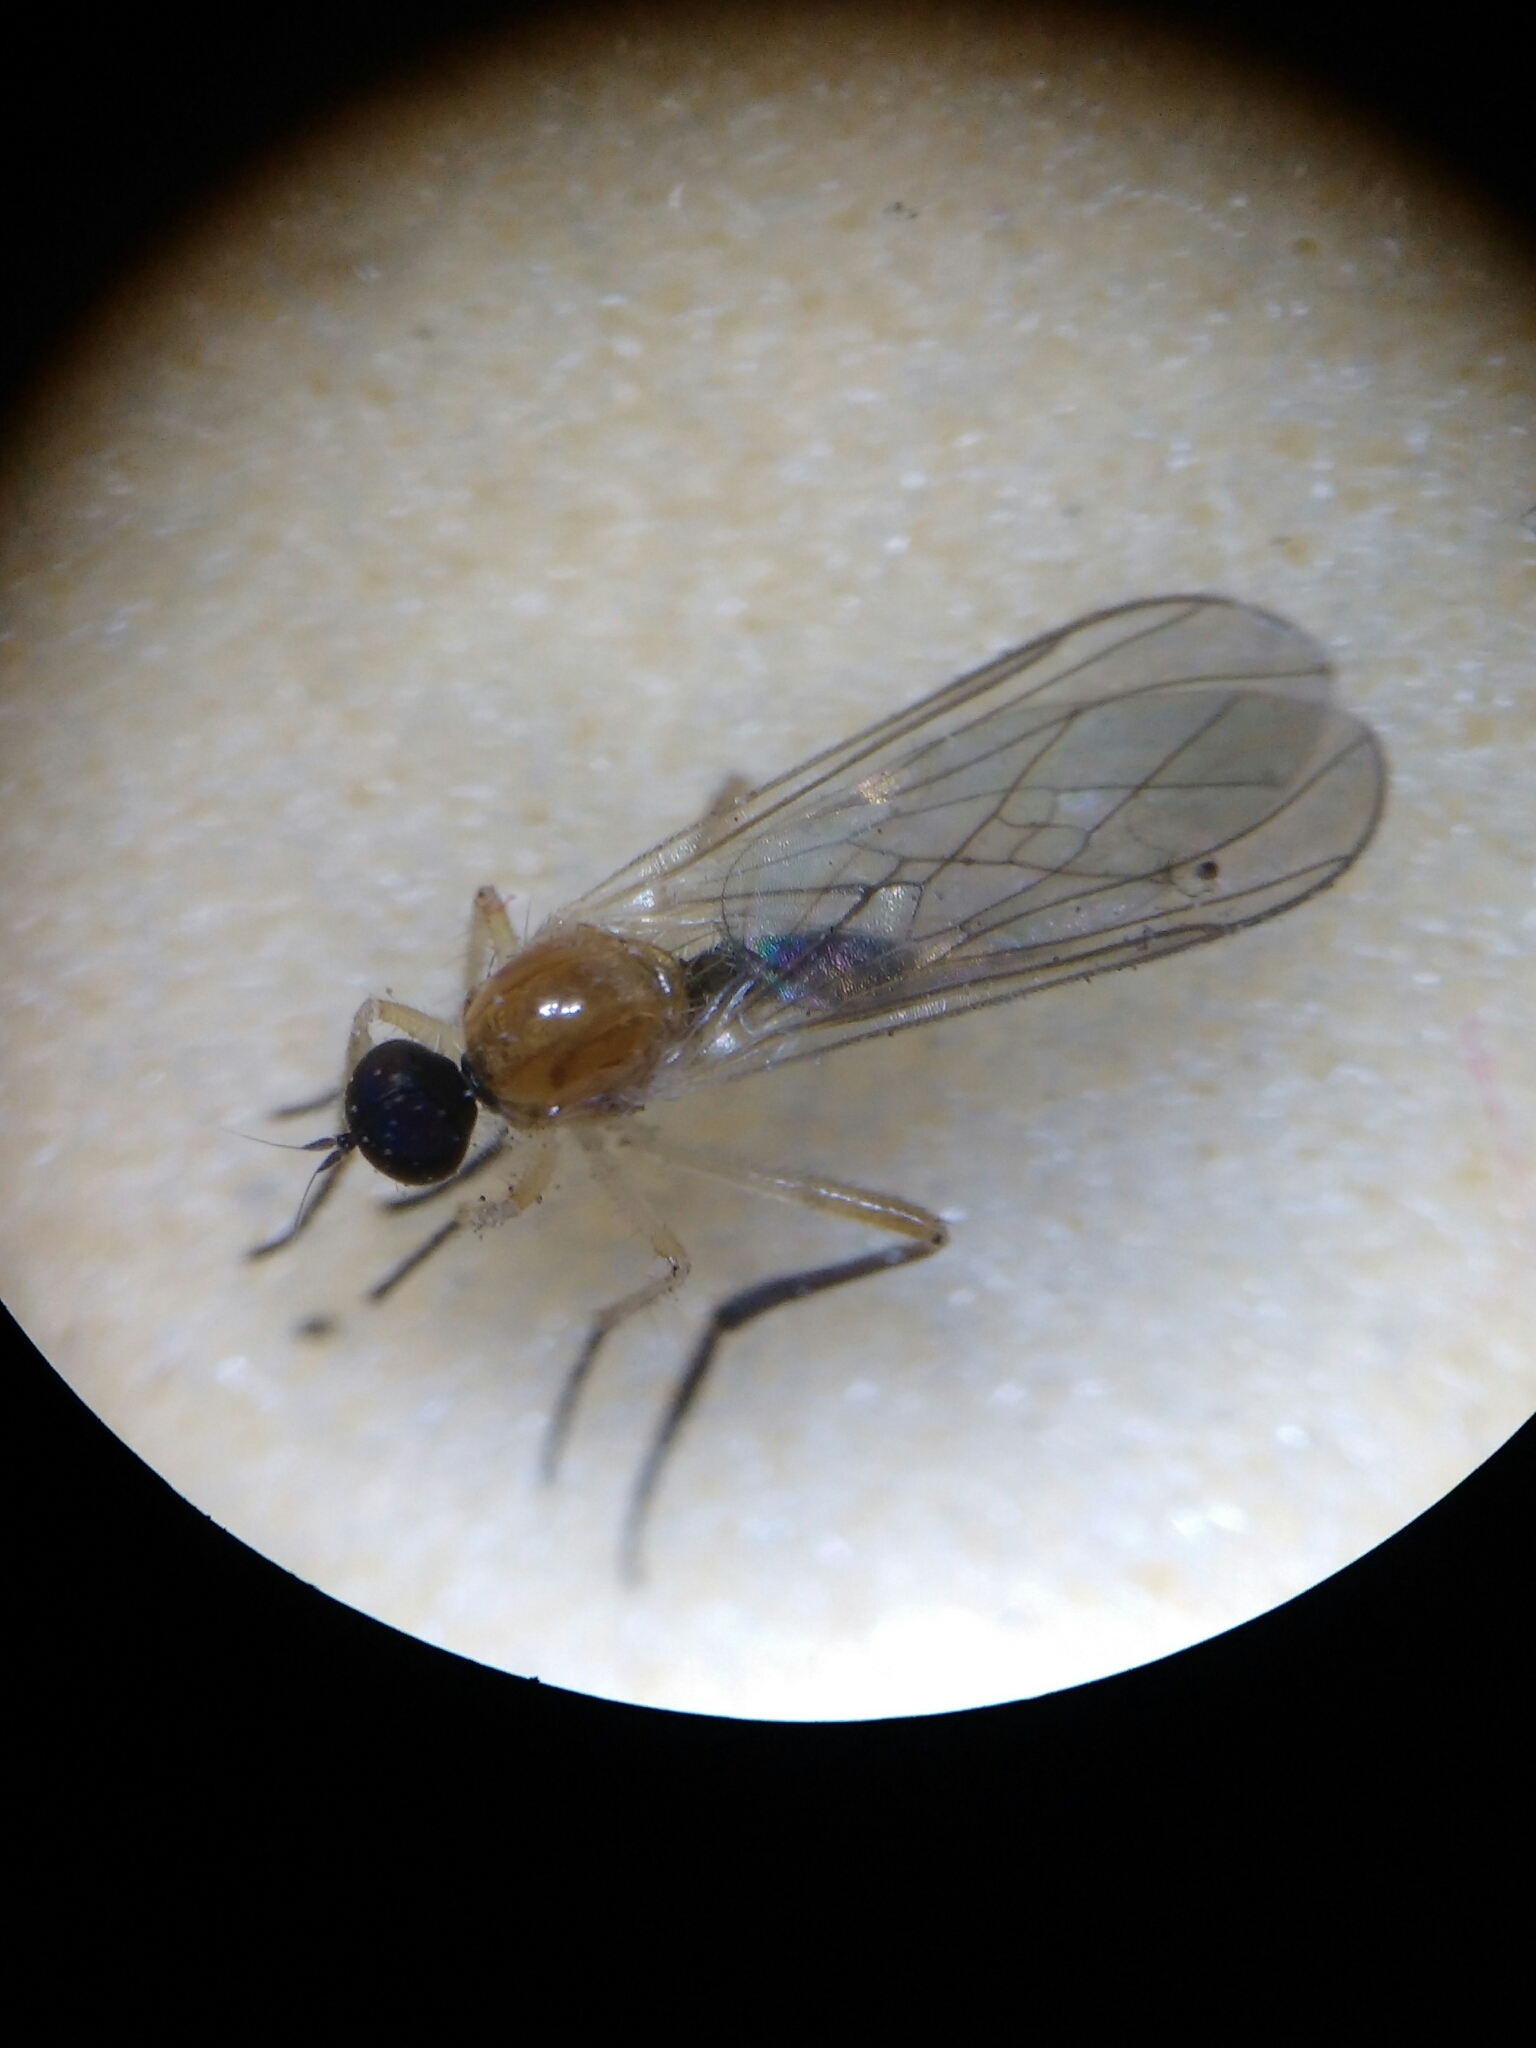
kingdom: Animalia
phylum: Arthropoda
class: Insecta
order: Diptera
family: Hybotidae
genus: Leptopeza
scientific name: Leptopeza flavipes
